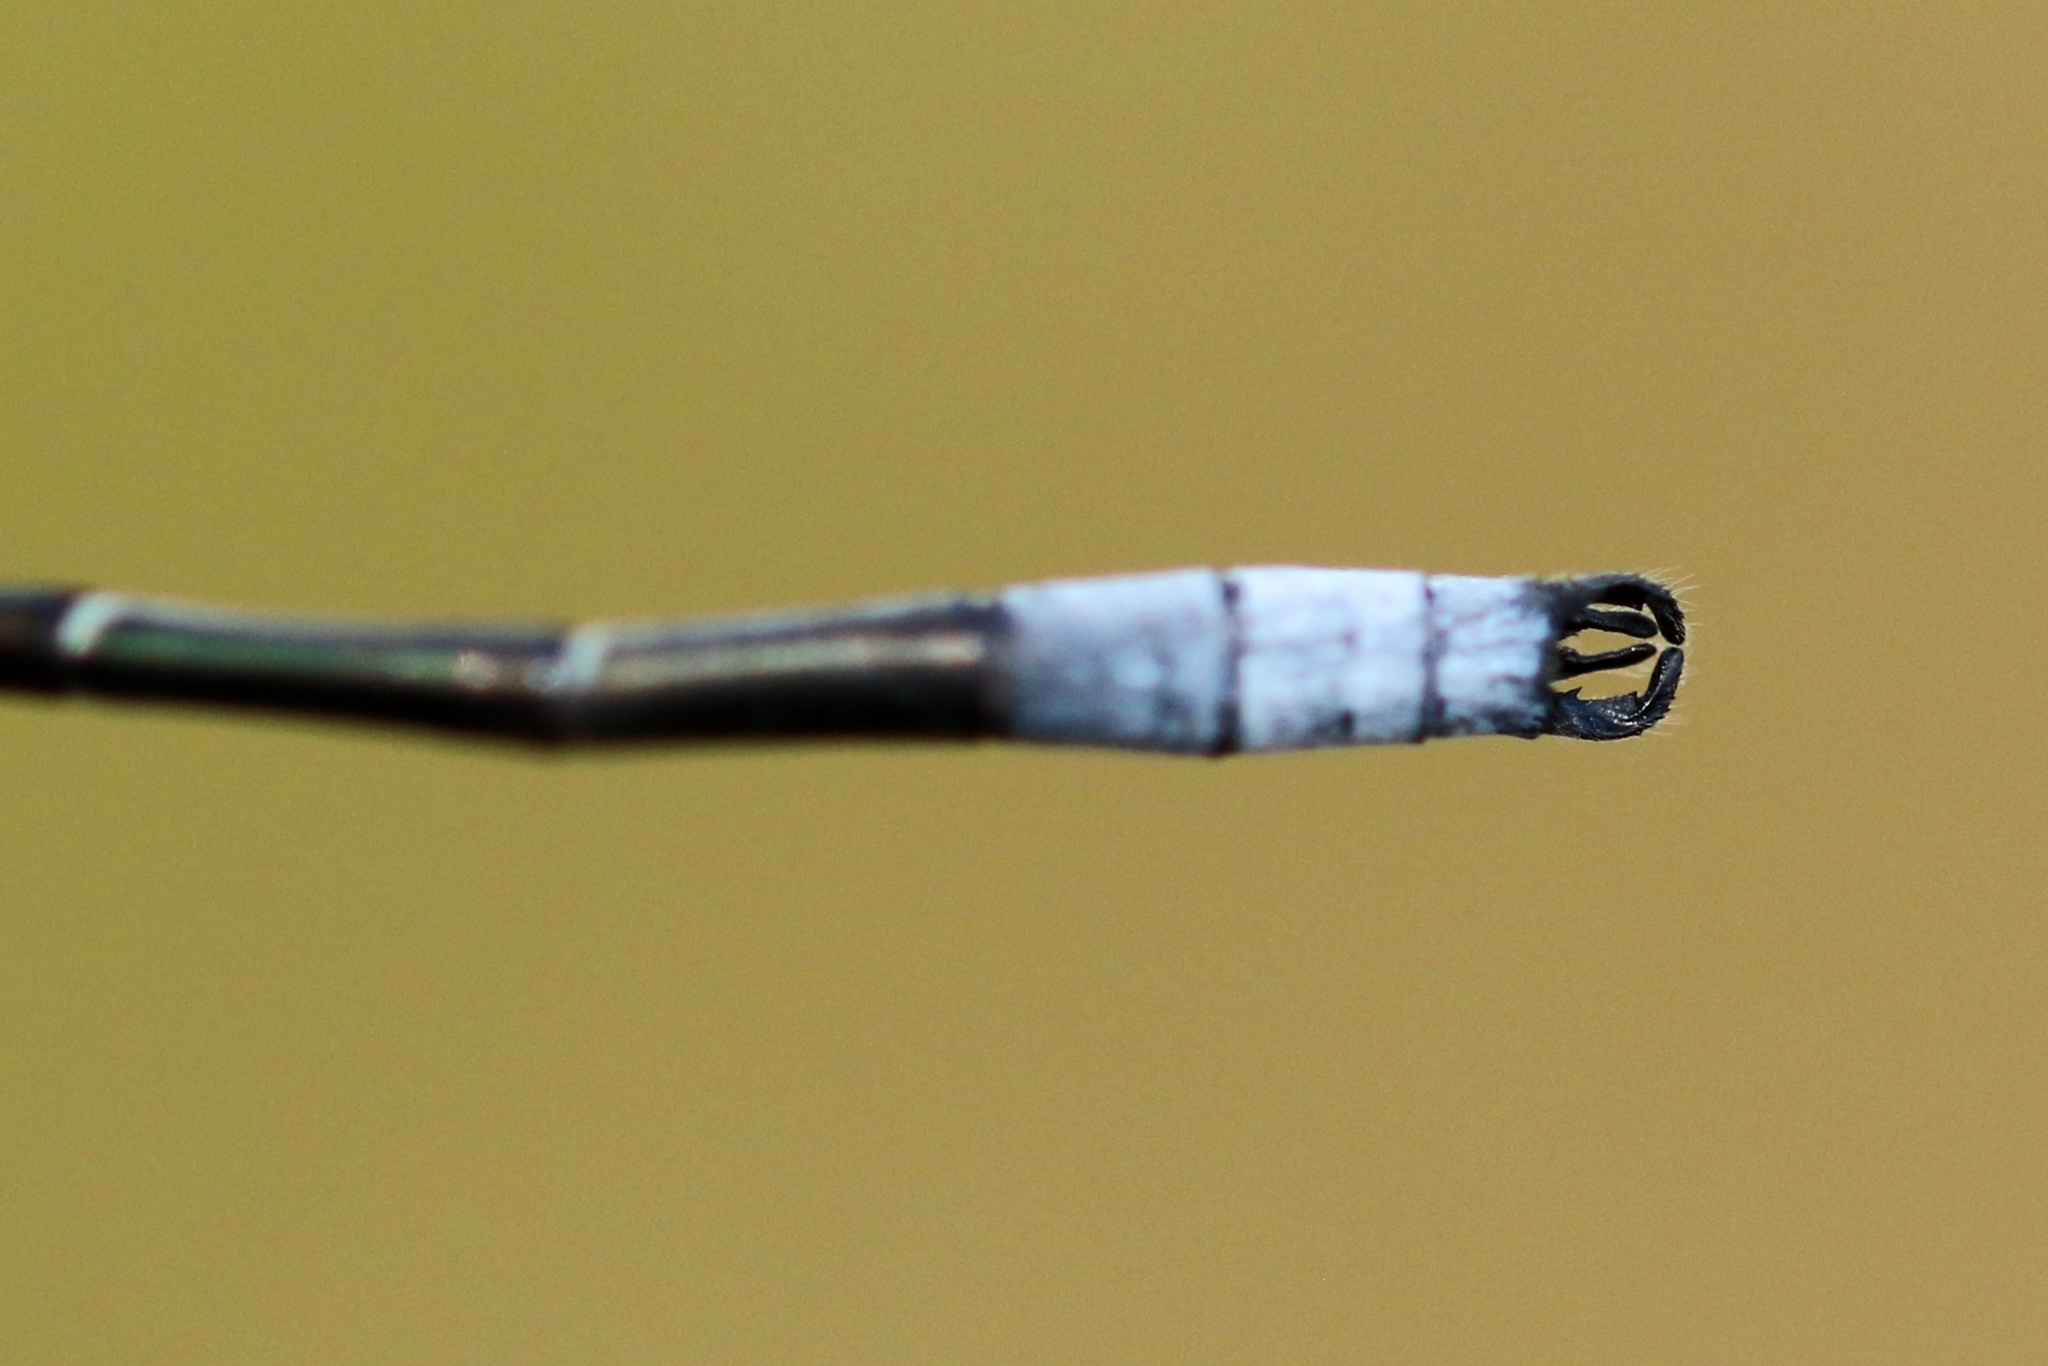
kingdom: Animalia
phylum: Arthropoda
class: Insecta
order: Odonata
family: Lestidae
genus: Lestes
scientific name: Lestes forcipatus
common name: Sweetflag spreadwing
